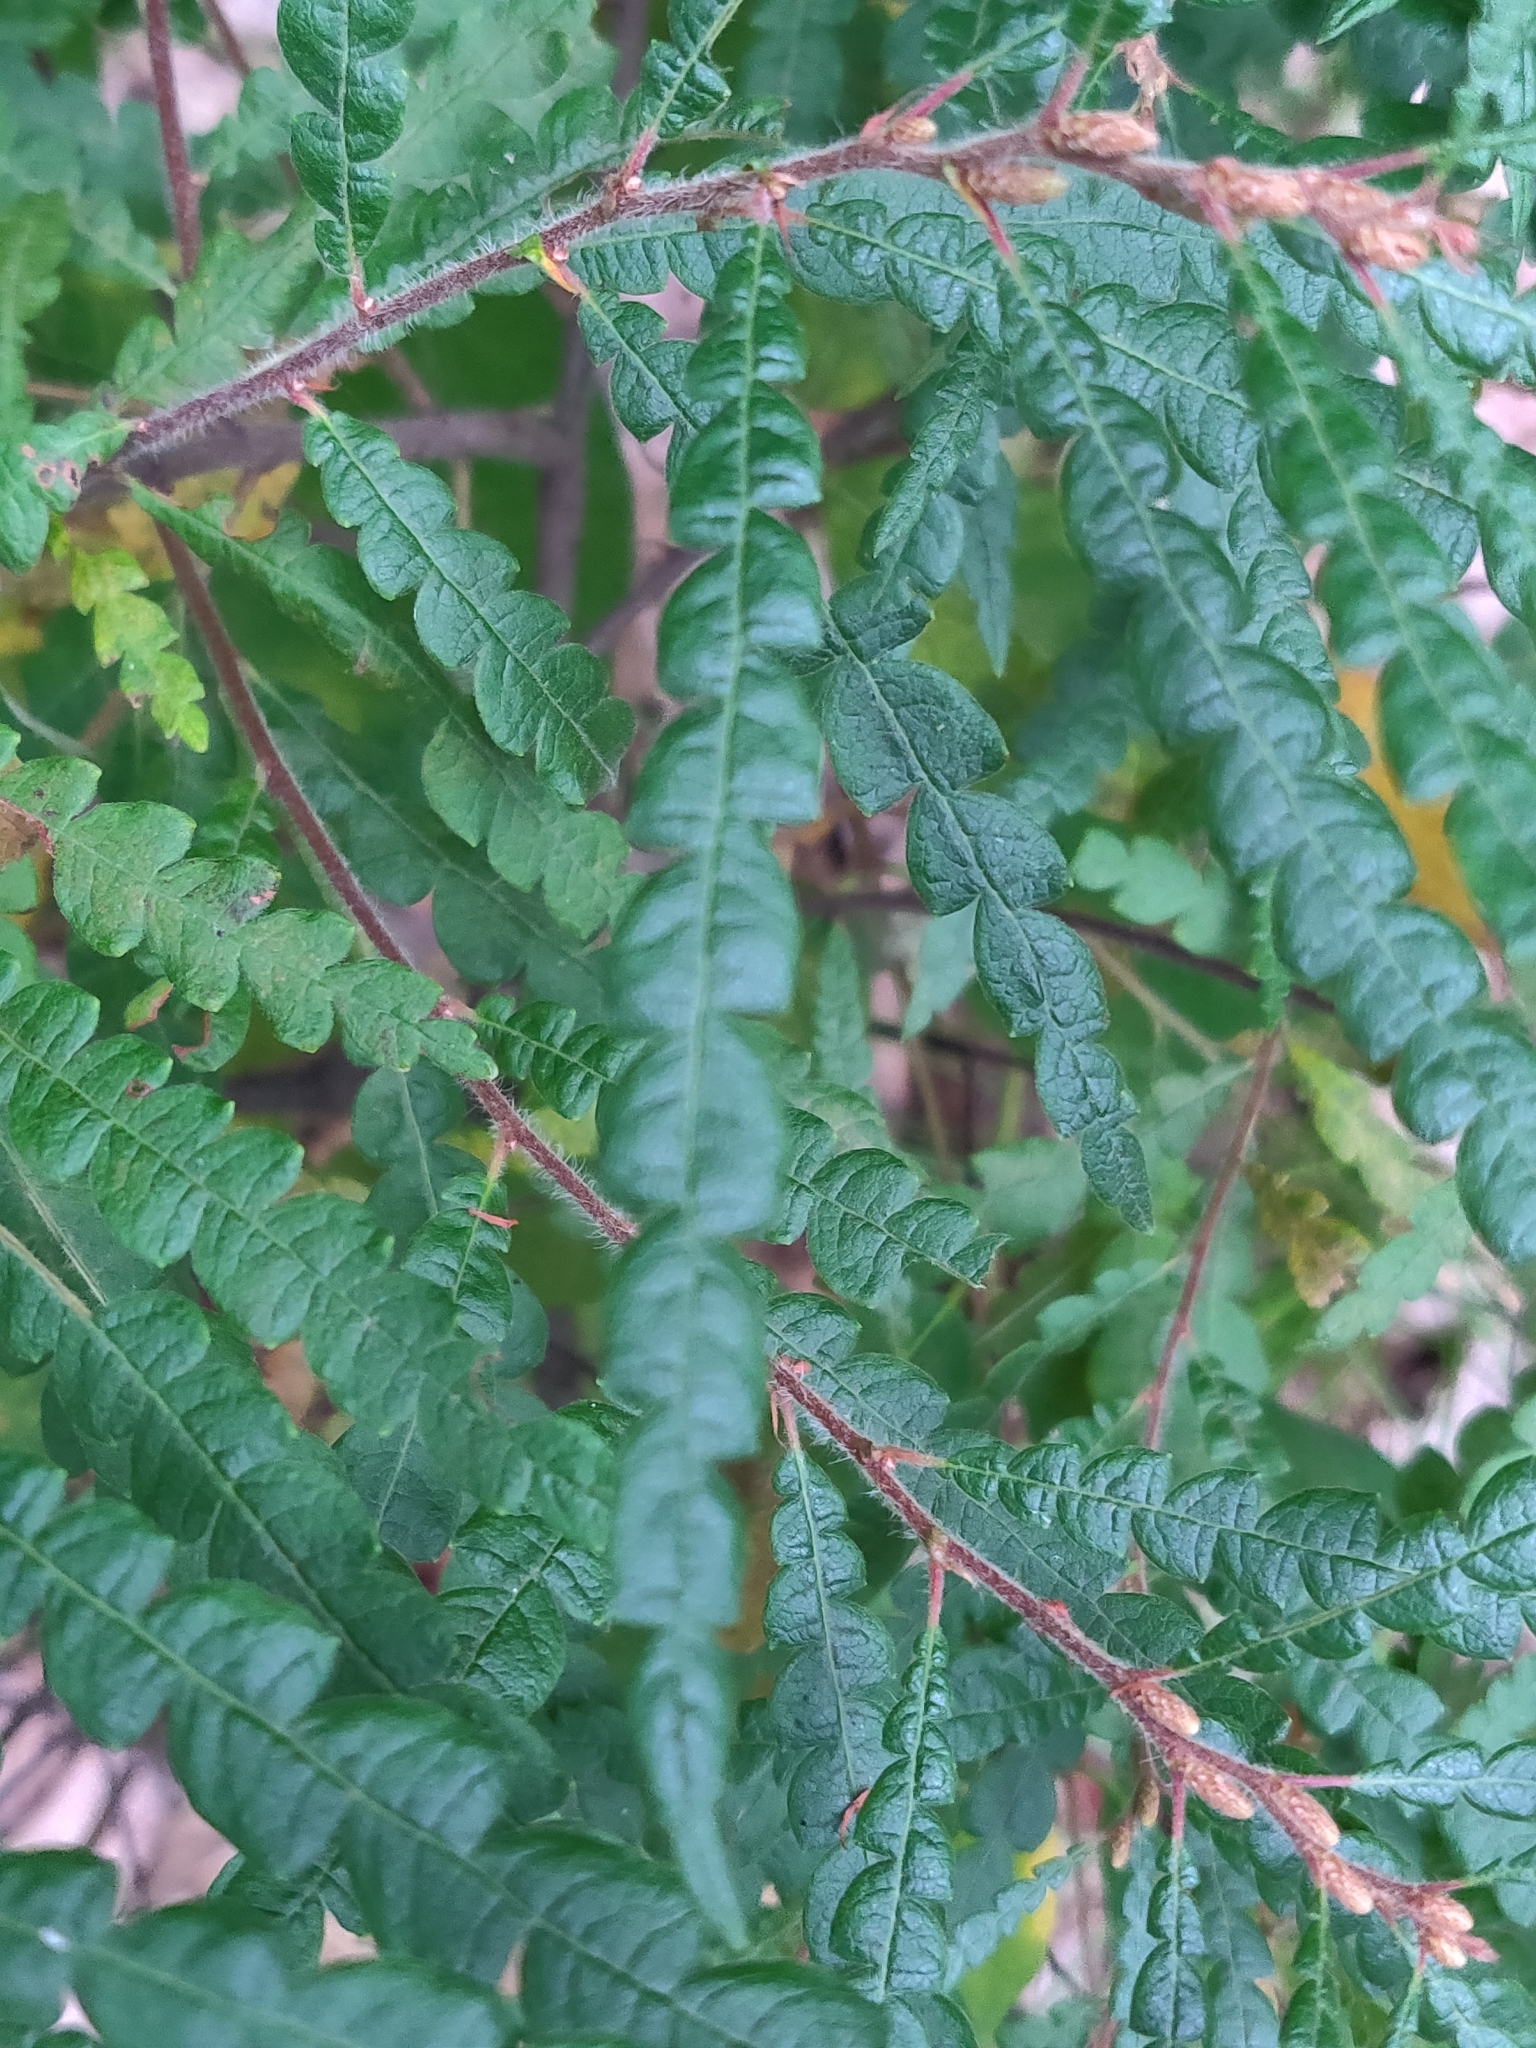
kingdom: Plantae
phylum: Tracheophyta
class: Magnoliopsida
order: Fagales
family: Myricaceae
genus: Comptonia
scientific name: Comptonia peregrina
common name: Sweet-fern
